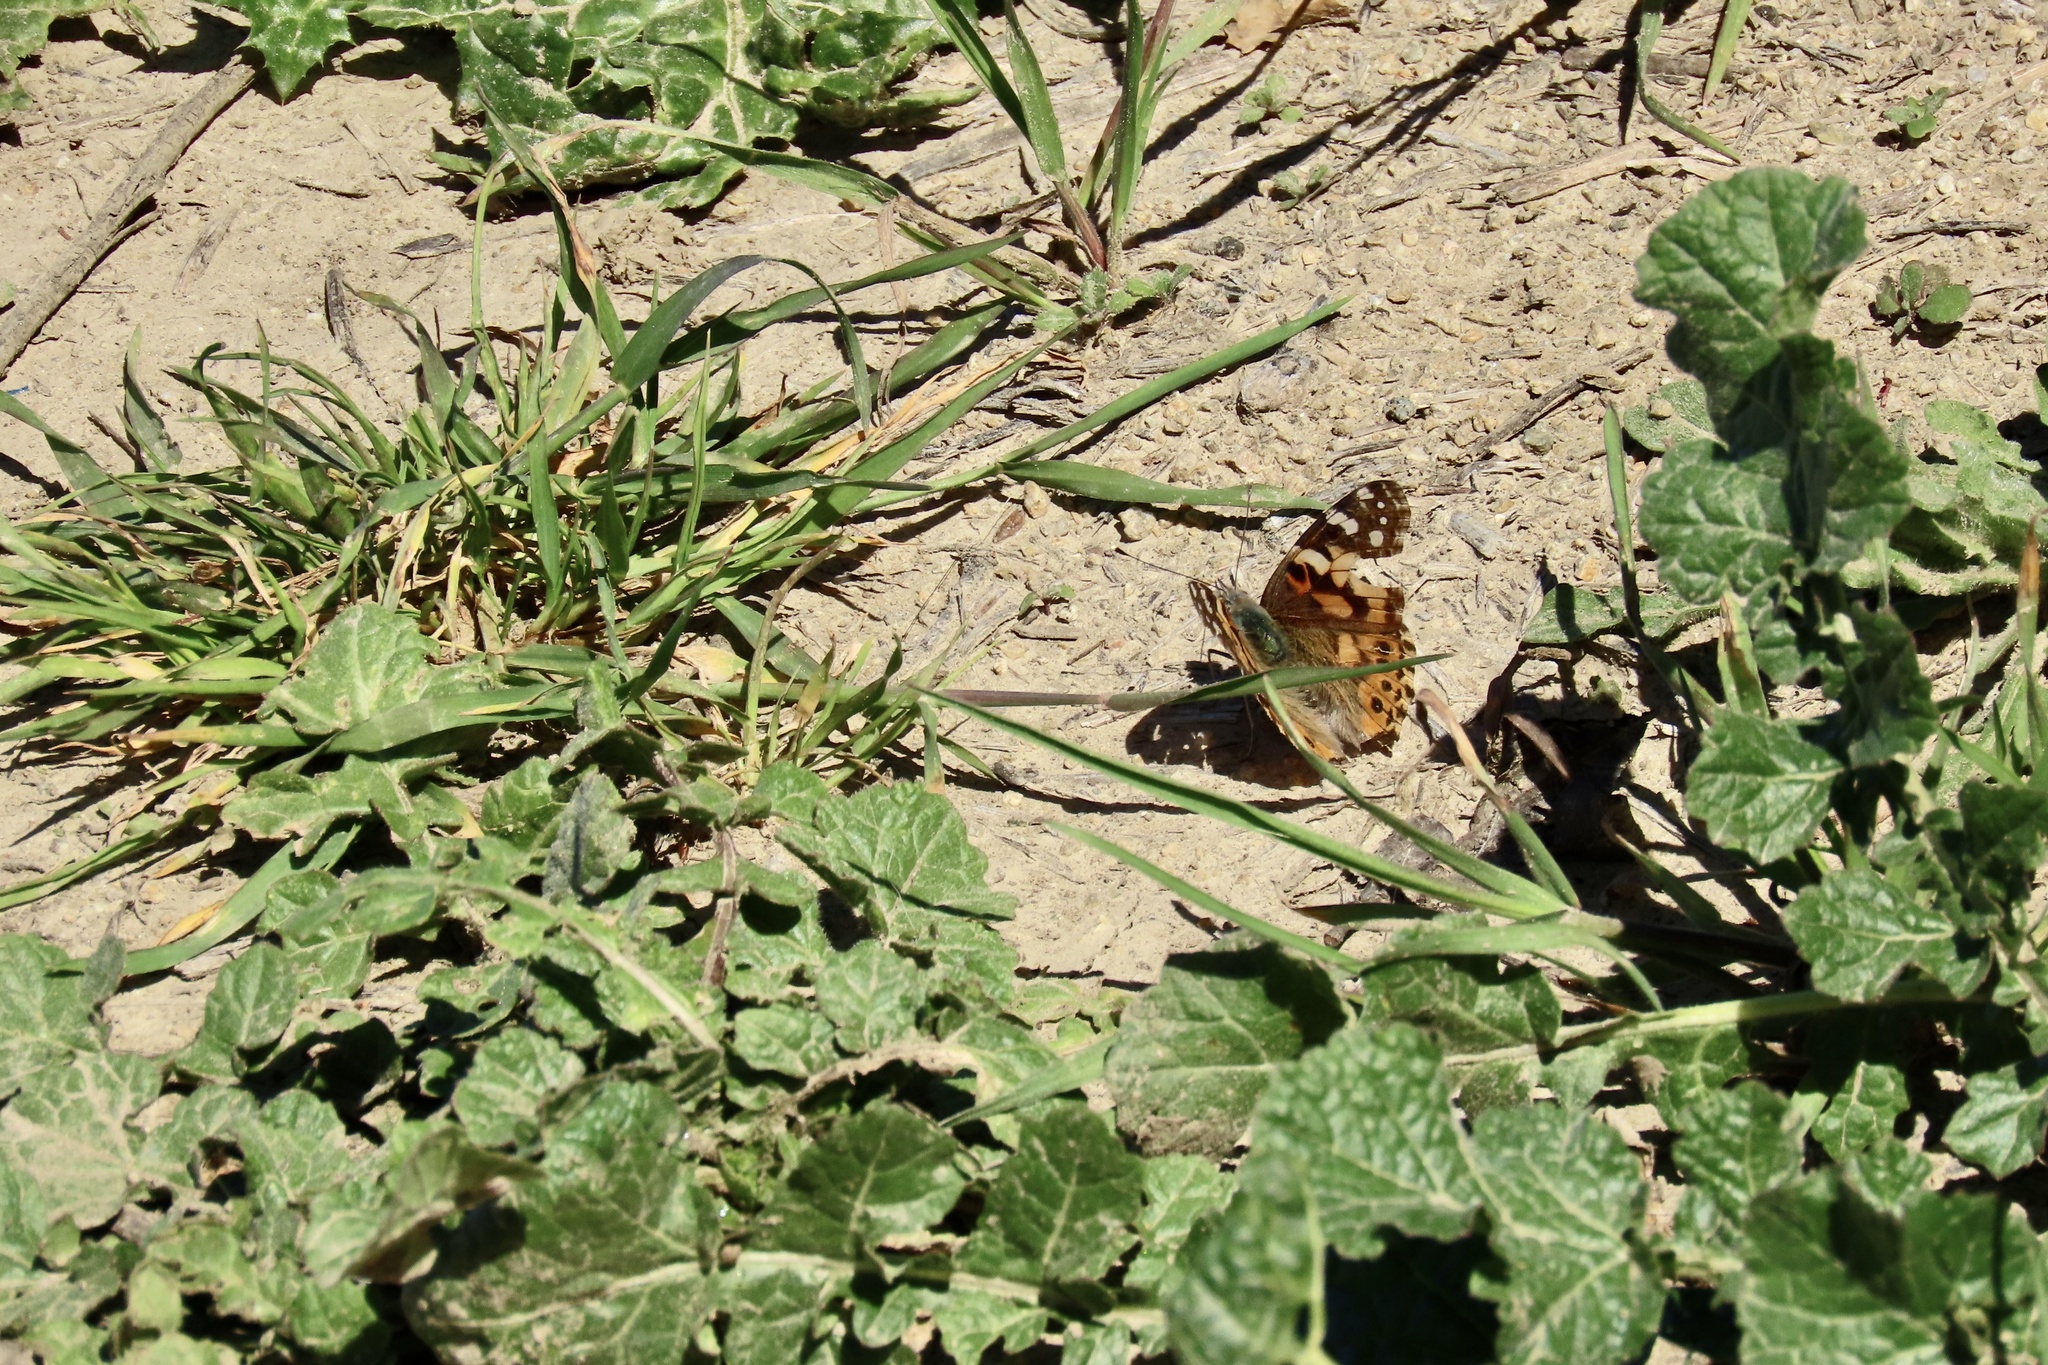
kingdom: Animalia
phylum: Arthropoda
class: Insecta
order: Lepidoptera
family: Nymphalidae
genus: Vanessa
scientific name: Vanessa cardui
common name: Painted lady
